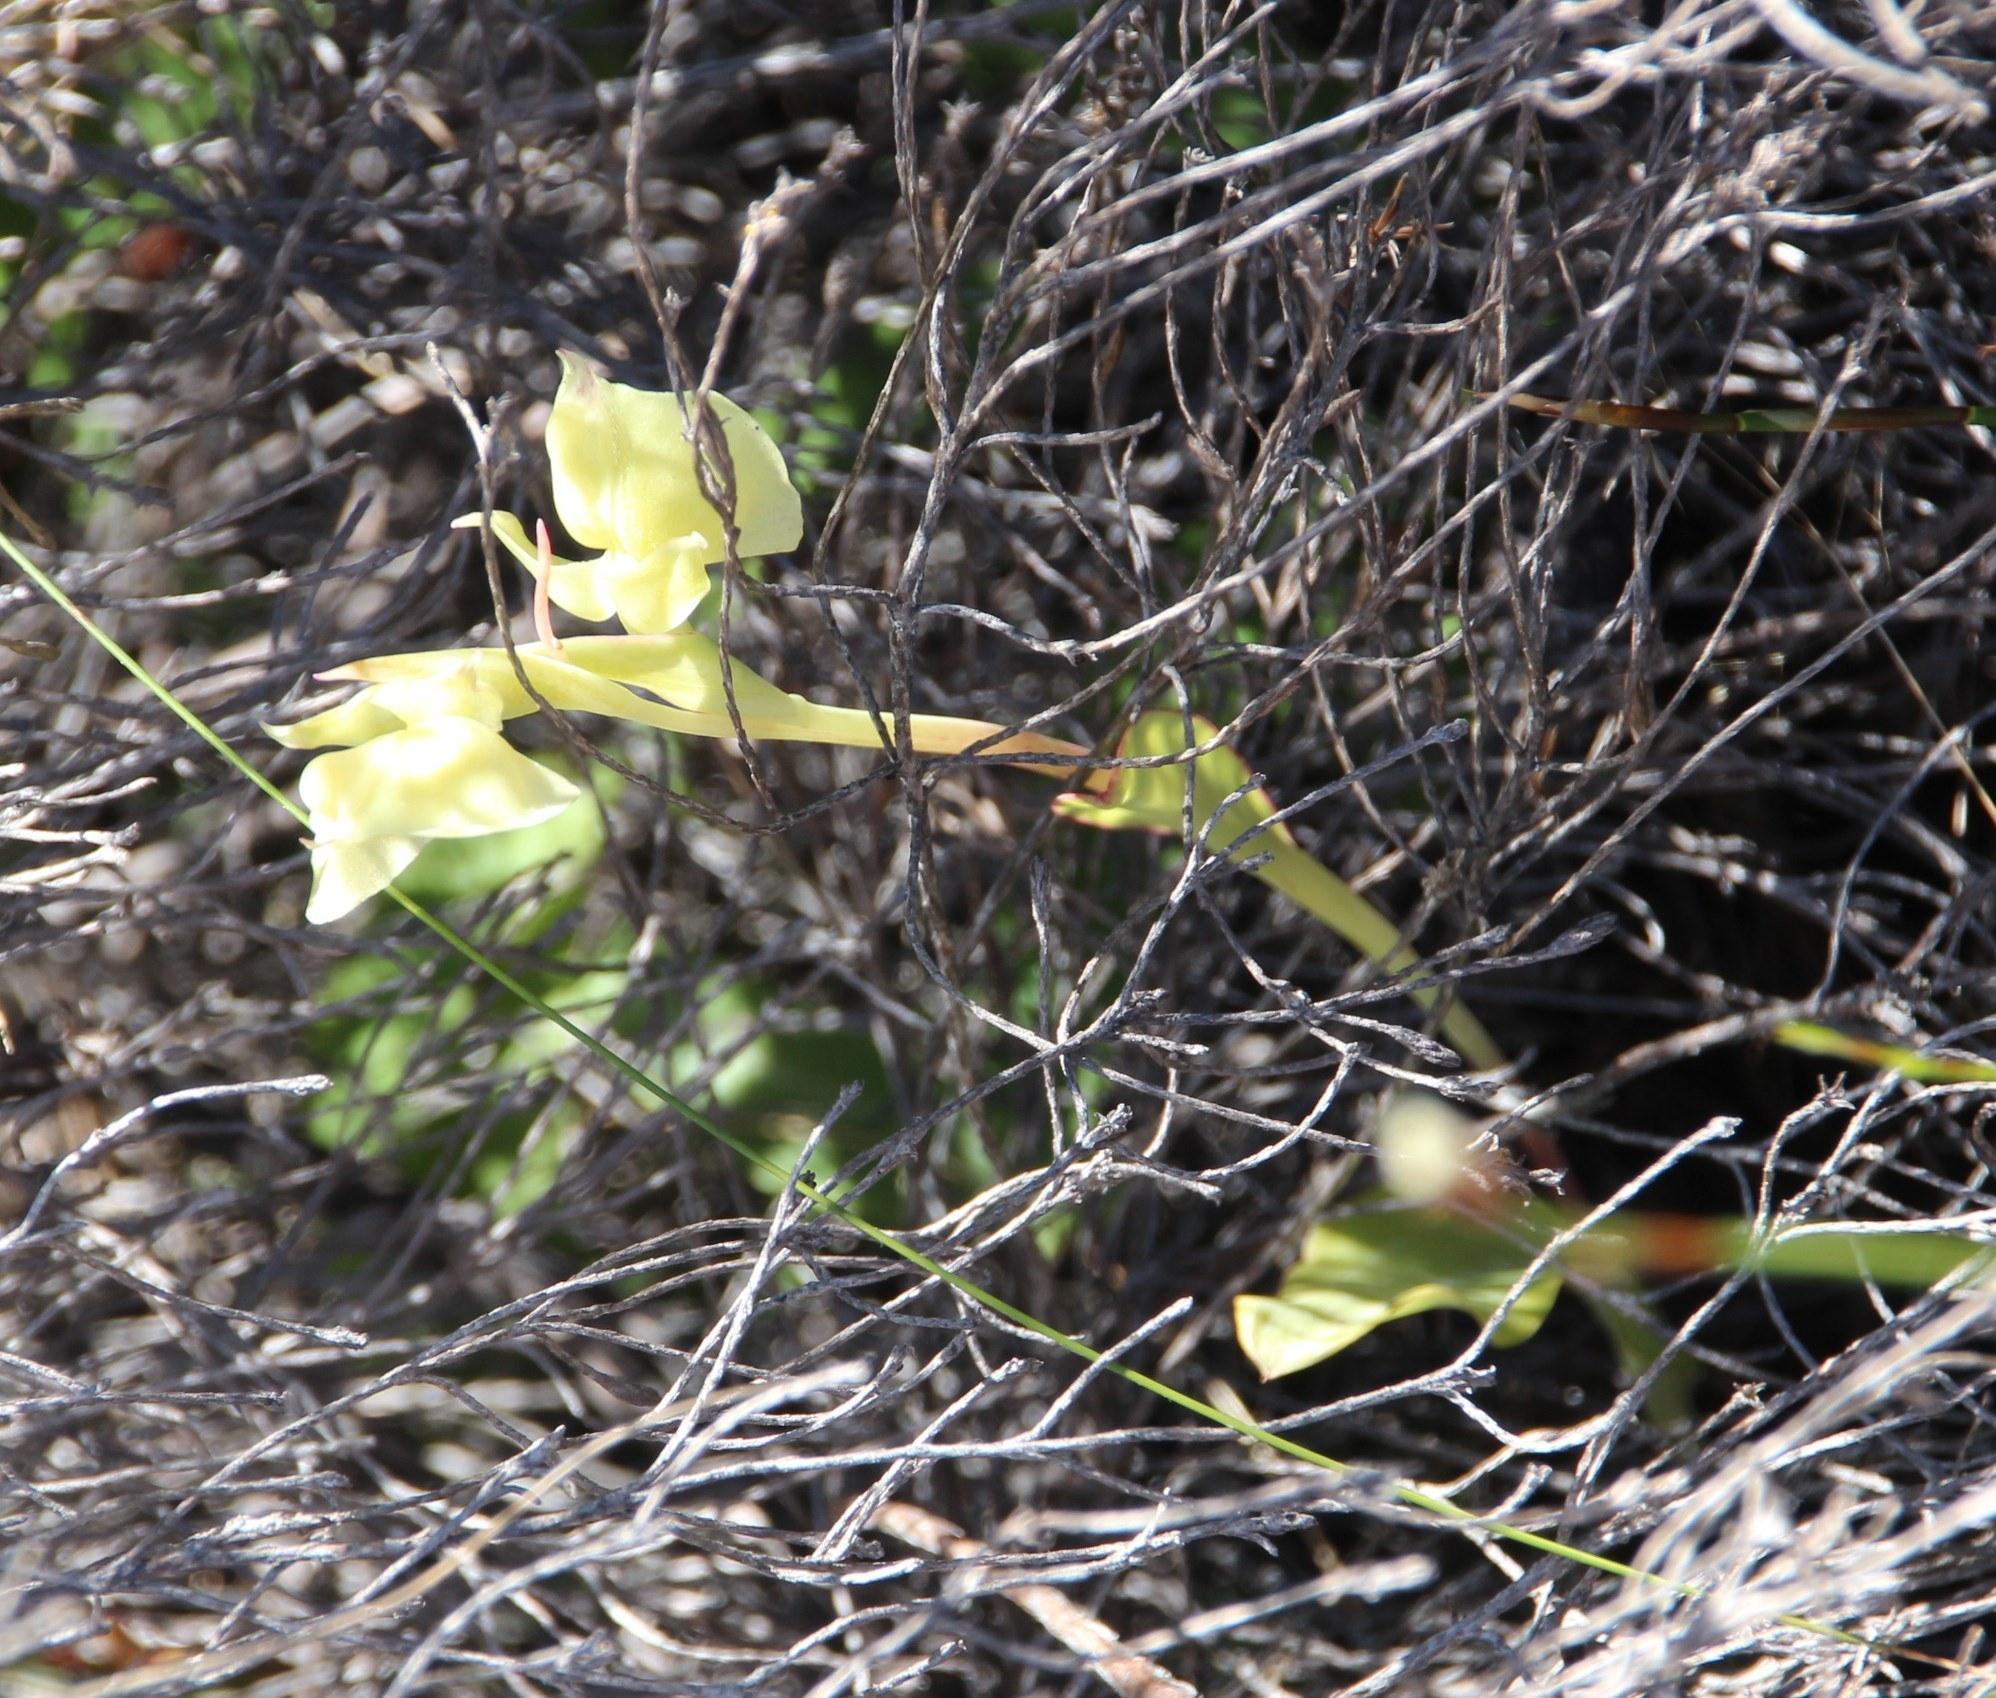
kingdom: Plantae
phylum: Tracheophyta
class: Liliopsida
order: Asparagales
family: Orchidaceae
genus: Pterygodium
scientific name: Pterygodium catholicum
